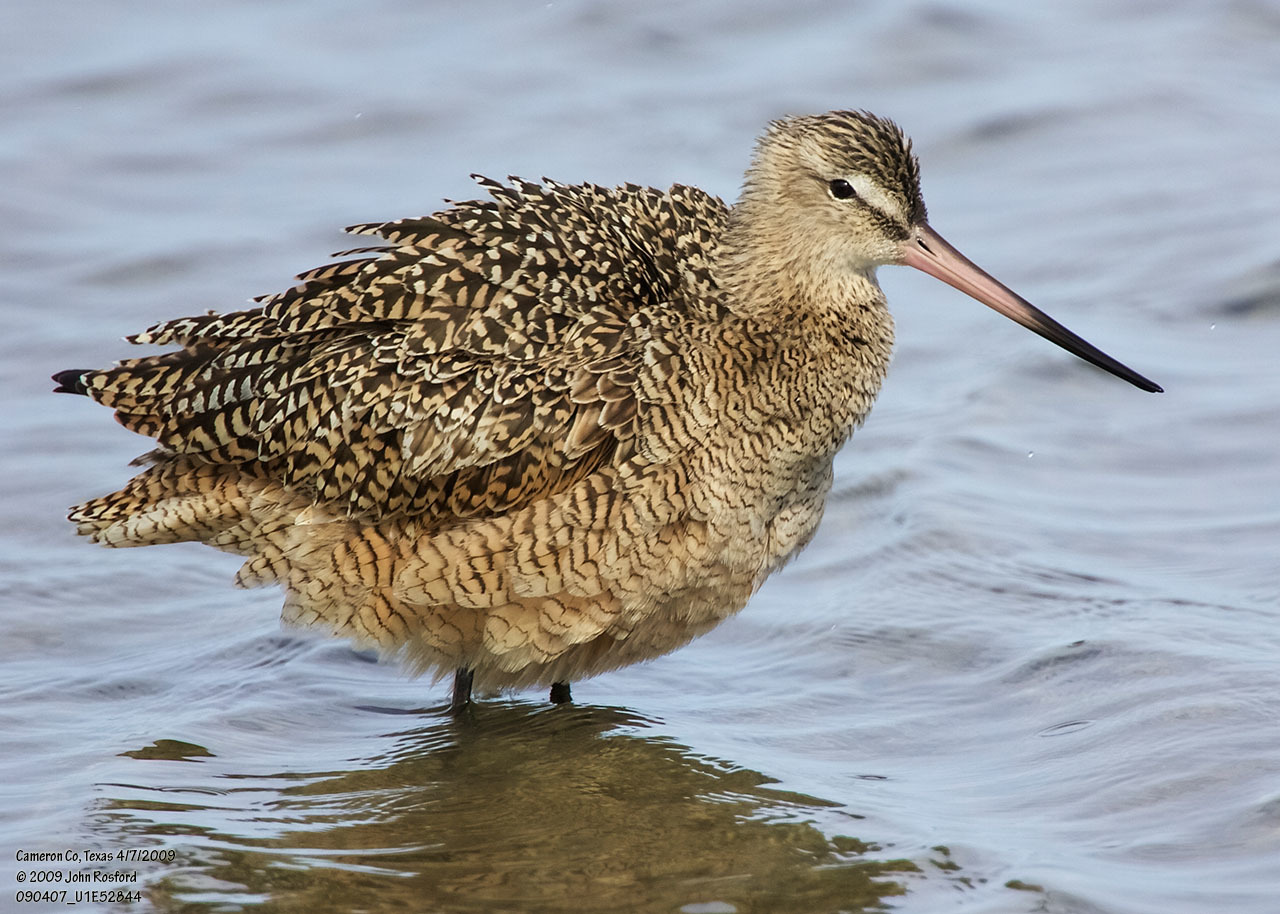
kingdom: Animalia
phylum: Chordata
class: Aves
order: Charadriiformes
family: Scolopacidae
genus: Limosa
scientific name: Limosa fedoa
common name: Marbled godwit
